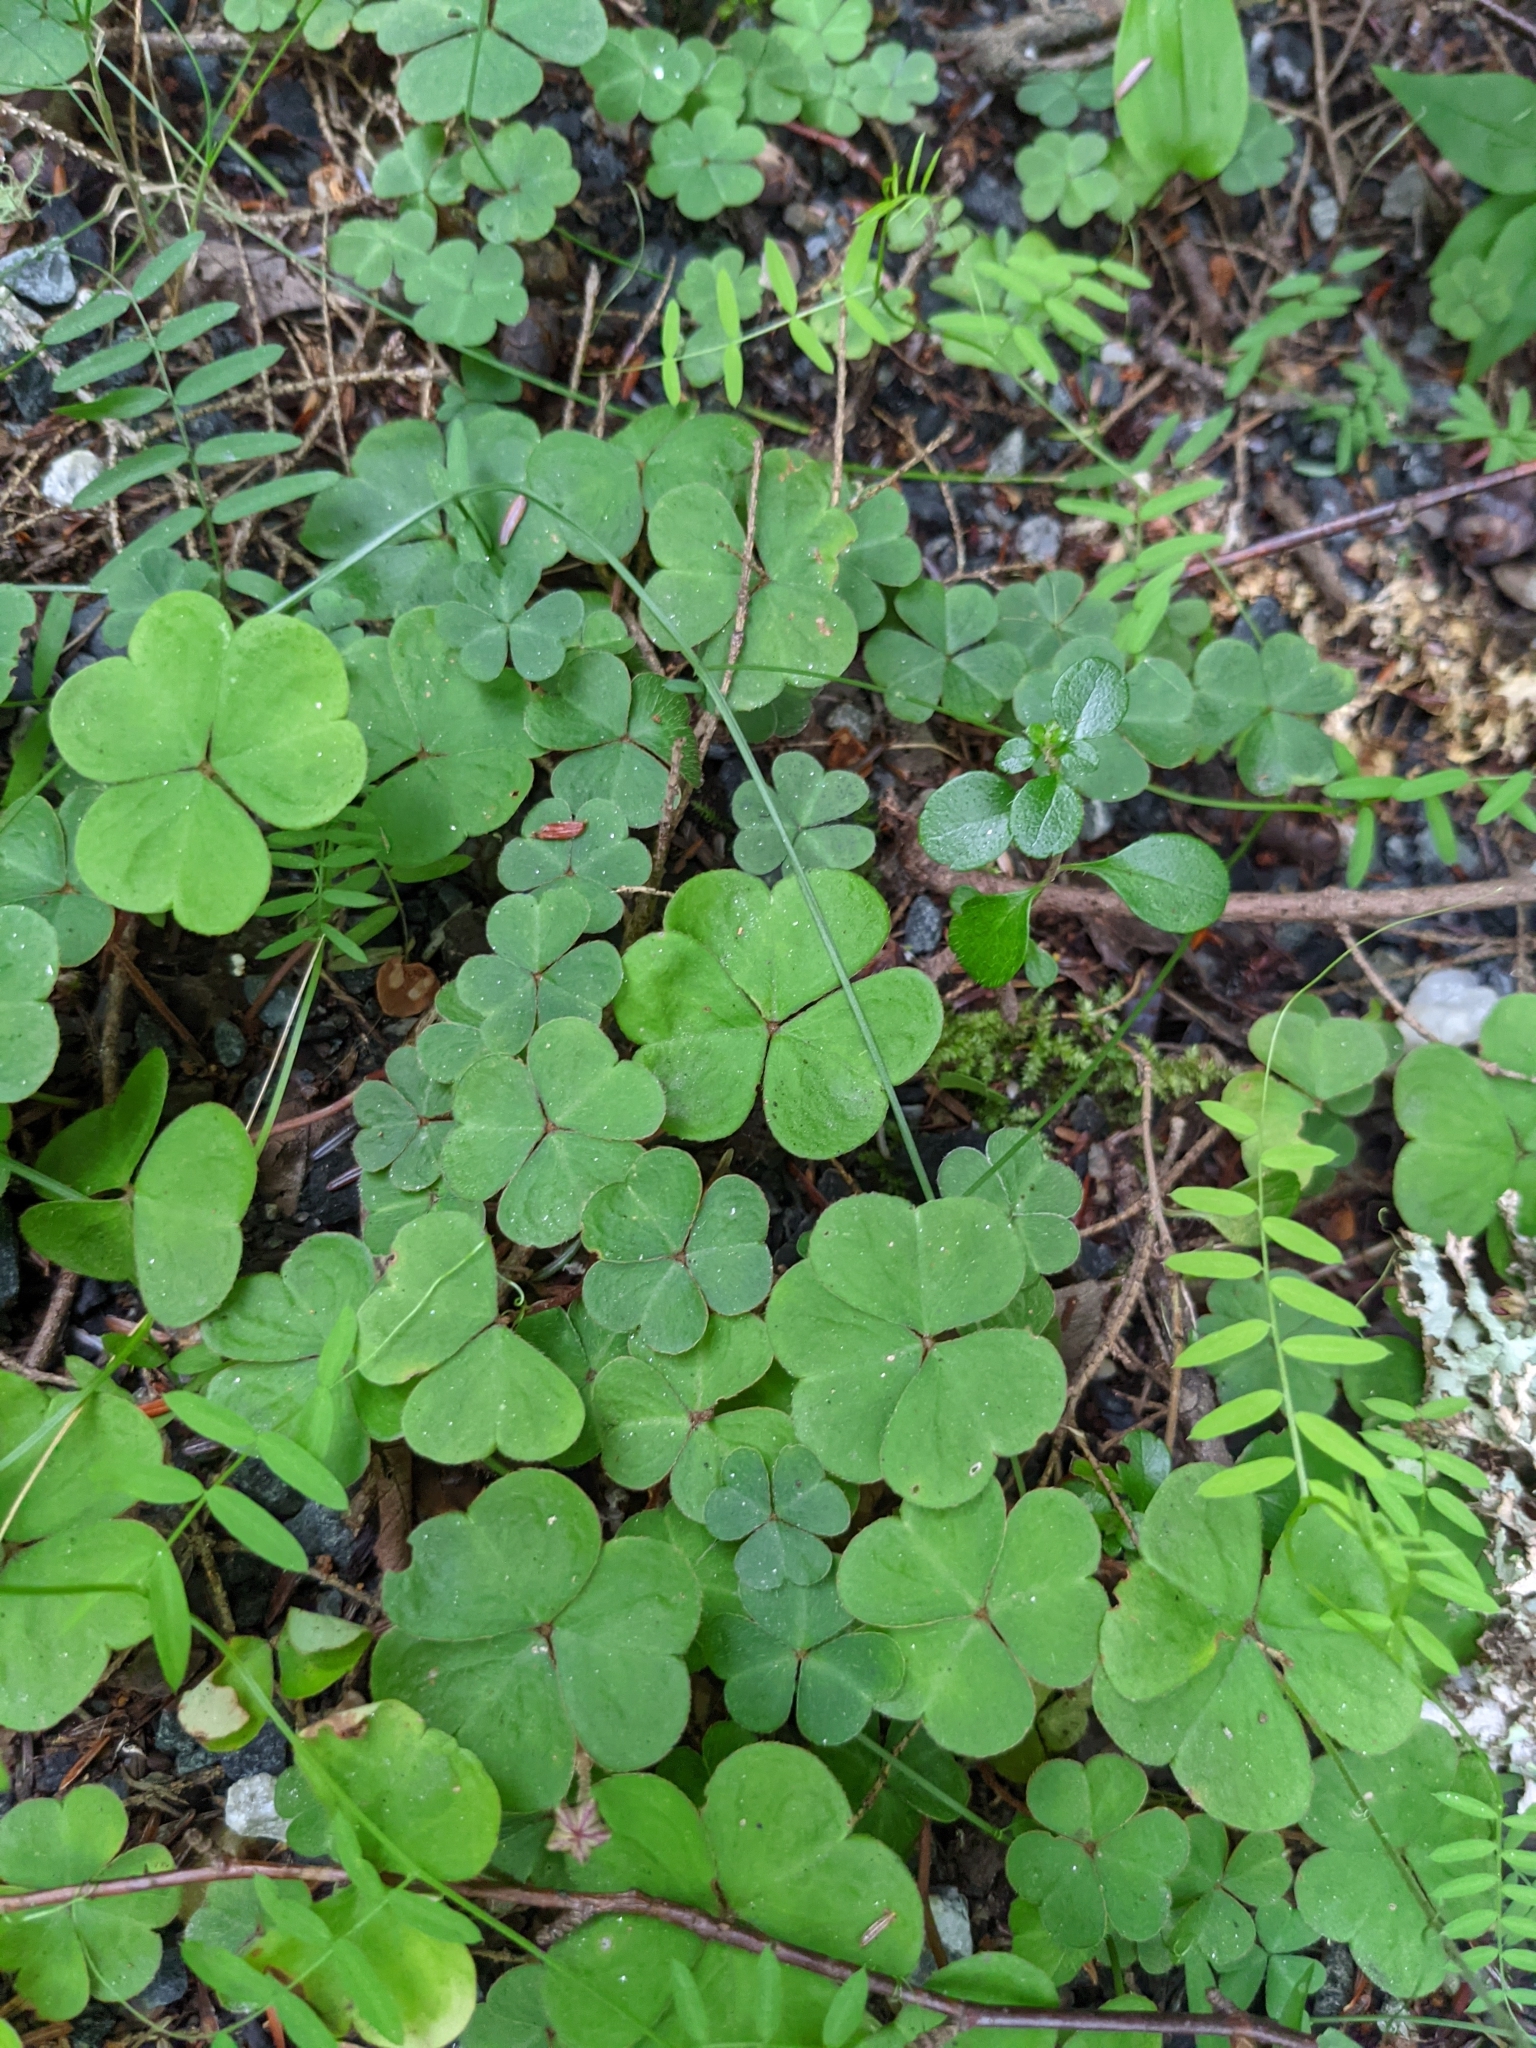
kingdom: Plantae
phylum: Tracheophyta
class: Magnoliopsida
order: Oxalidales
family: Oxalidaceae
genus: Oxalis
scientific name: Oxalis montana
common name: American wood-sorrel
